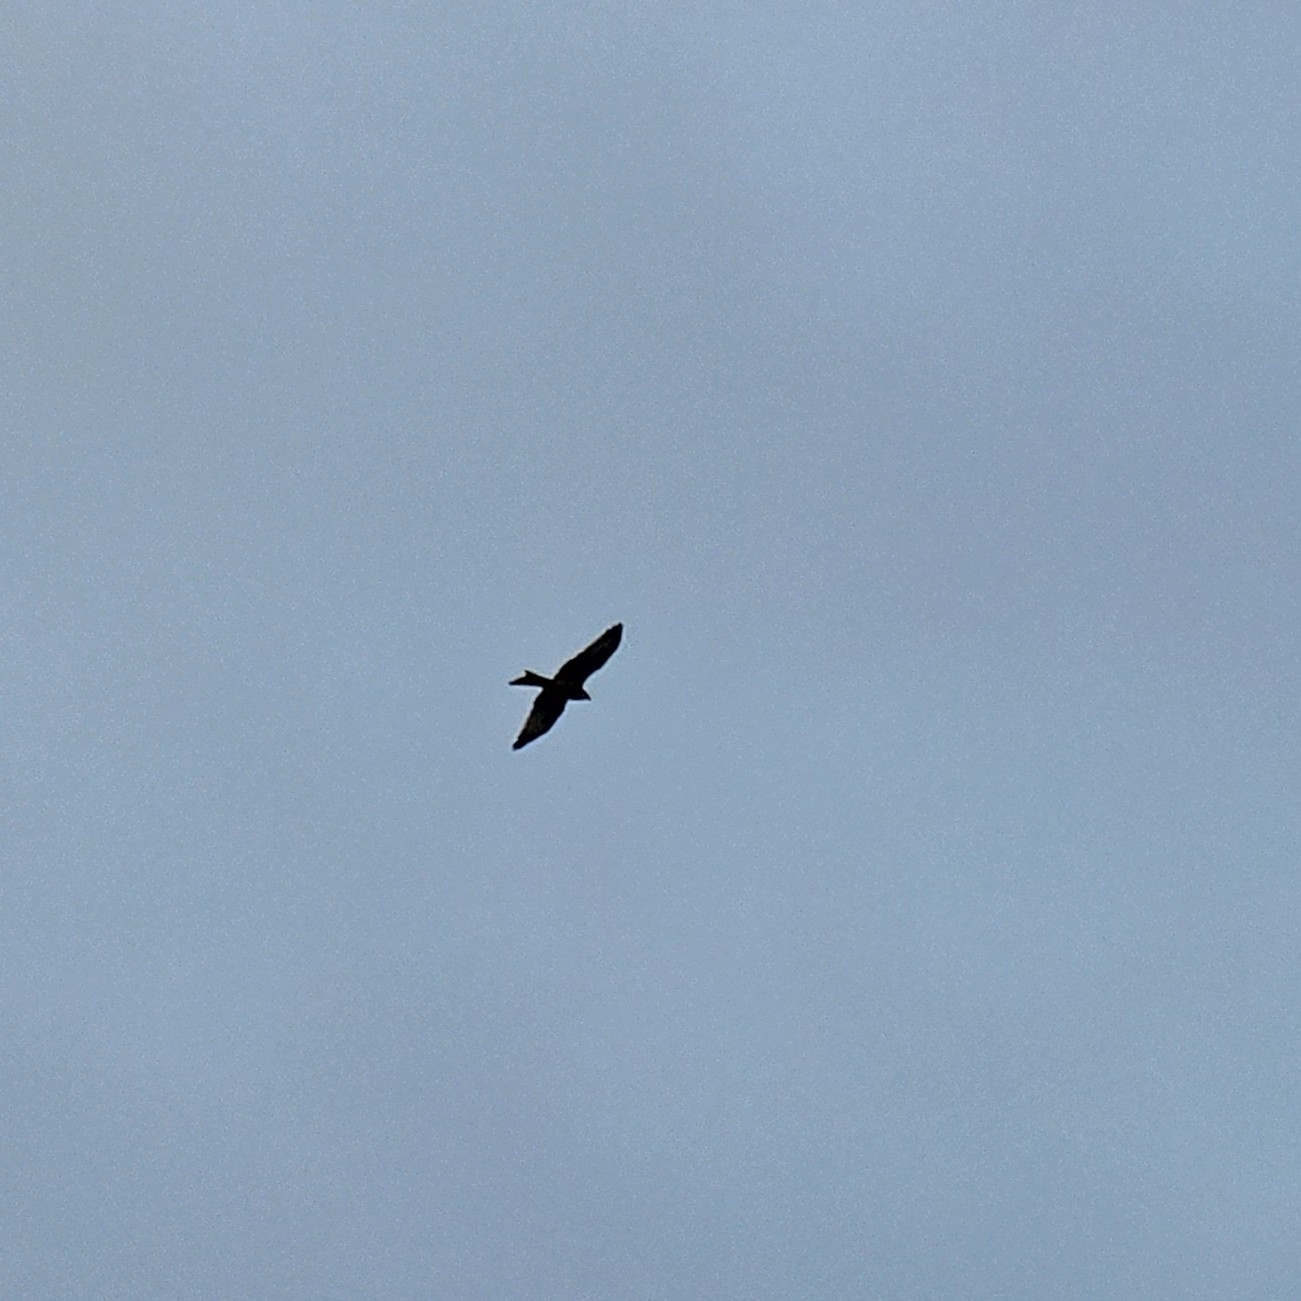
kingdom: Animalia
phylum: Chordata
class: Aves
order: Accipitriformes
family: Accipitridae
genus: Milvus
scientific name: Milvus milvus
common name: Red kite
